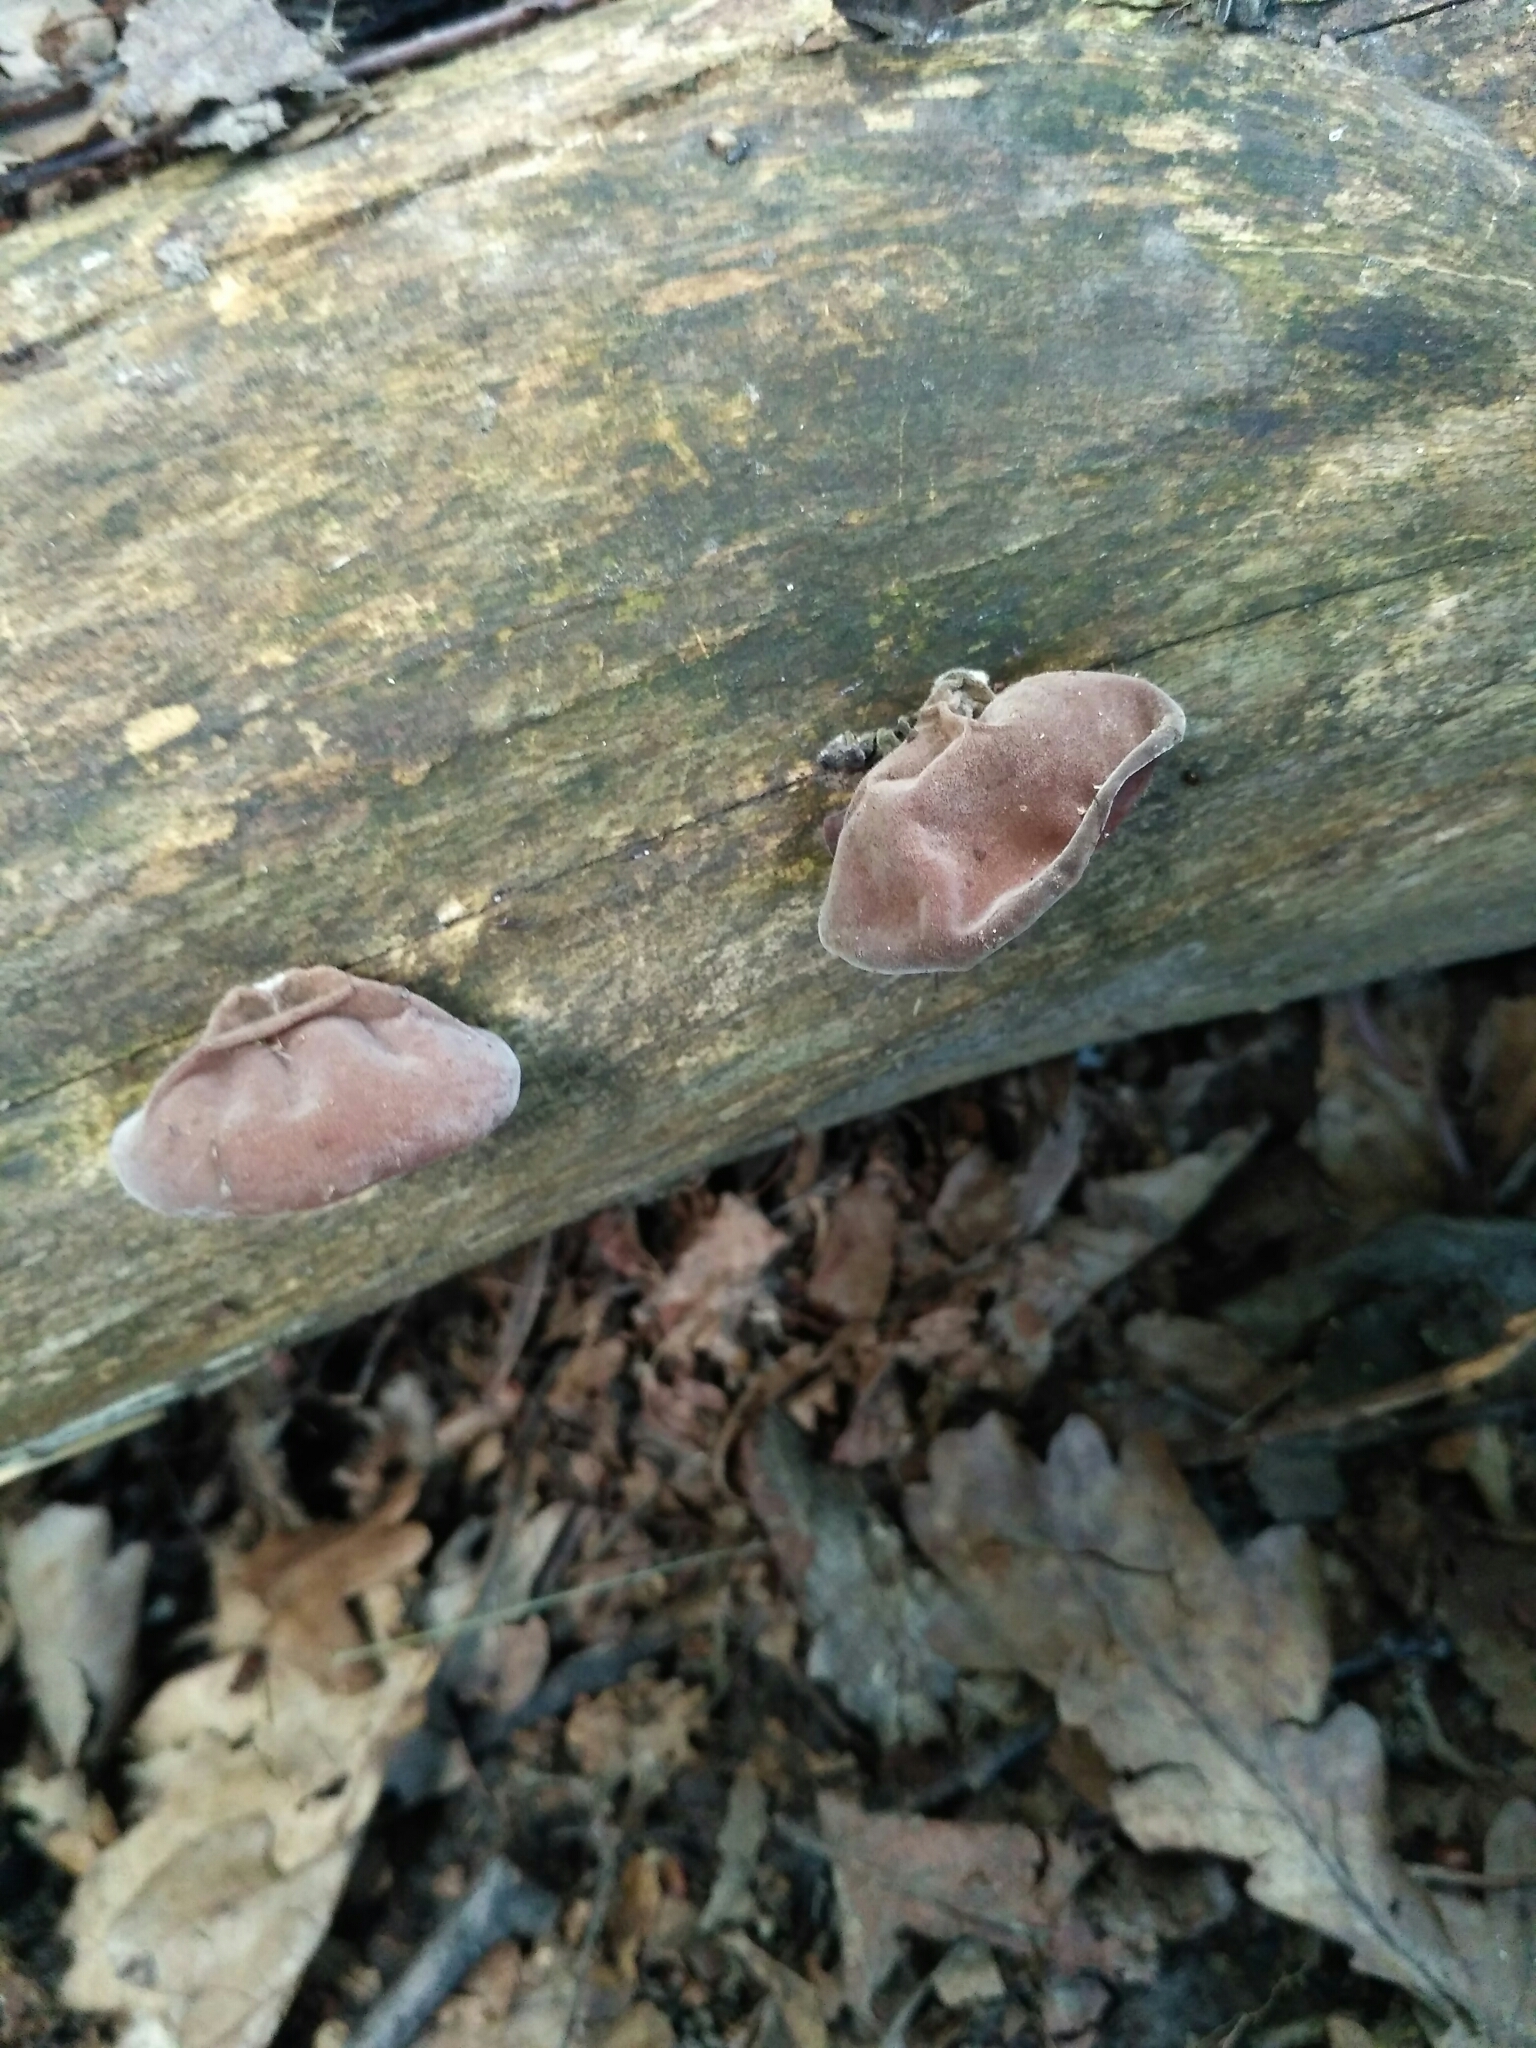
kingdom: Fungi
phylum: Basidiomycota
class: Agaricomycetes
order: Auriculariales
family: Auriculariaceae
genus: Auricularia
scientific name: Auricularia auricula-judae
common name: Jelly ear
